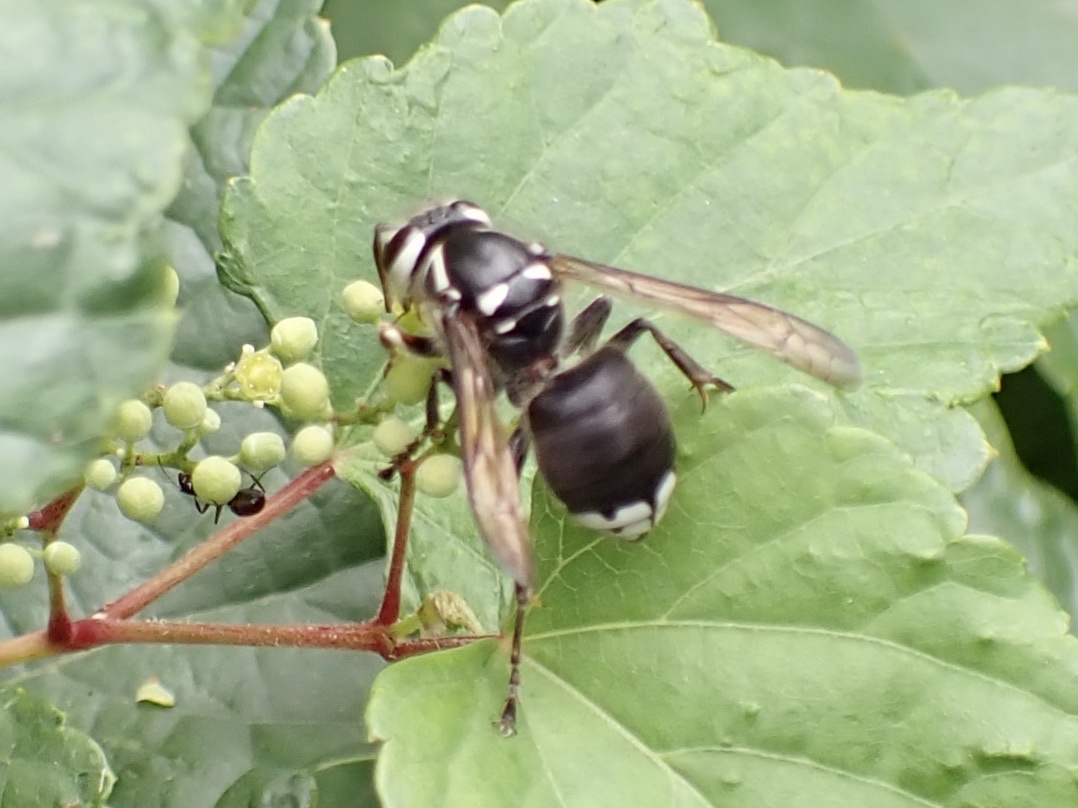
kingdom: Animalia
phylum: Arthropoda
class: Insecta
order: Hymenoptera
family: Vespidae
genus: Dolichovespula
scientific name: Dolichovespula maculata
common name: Bald-faced hornet
